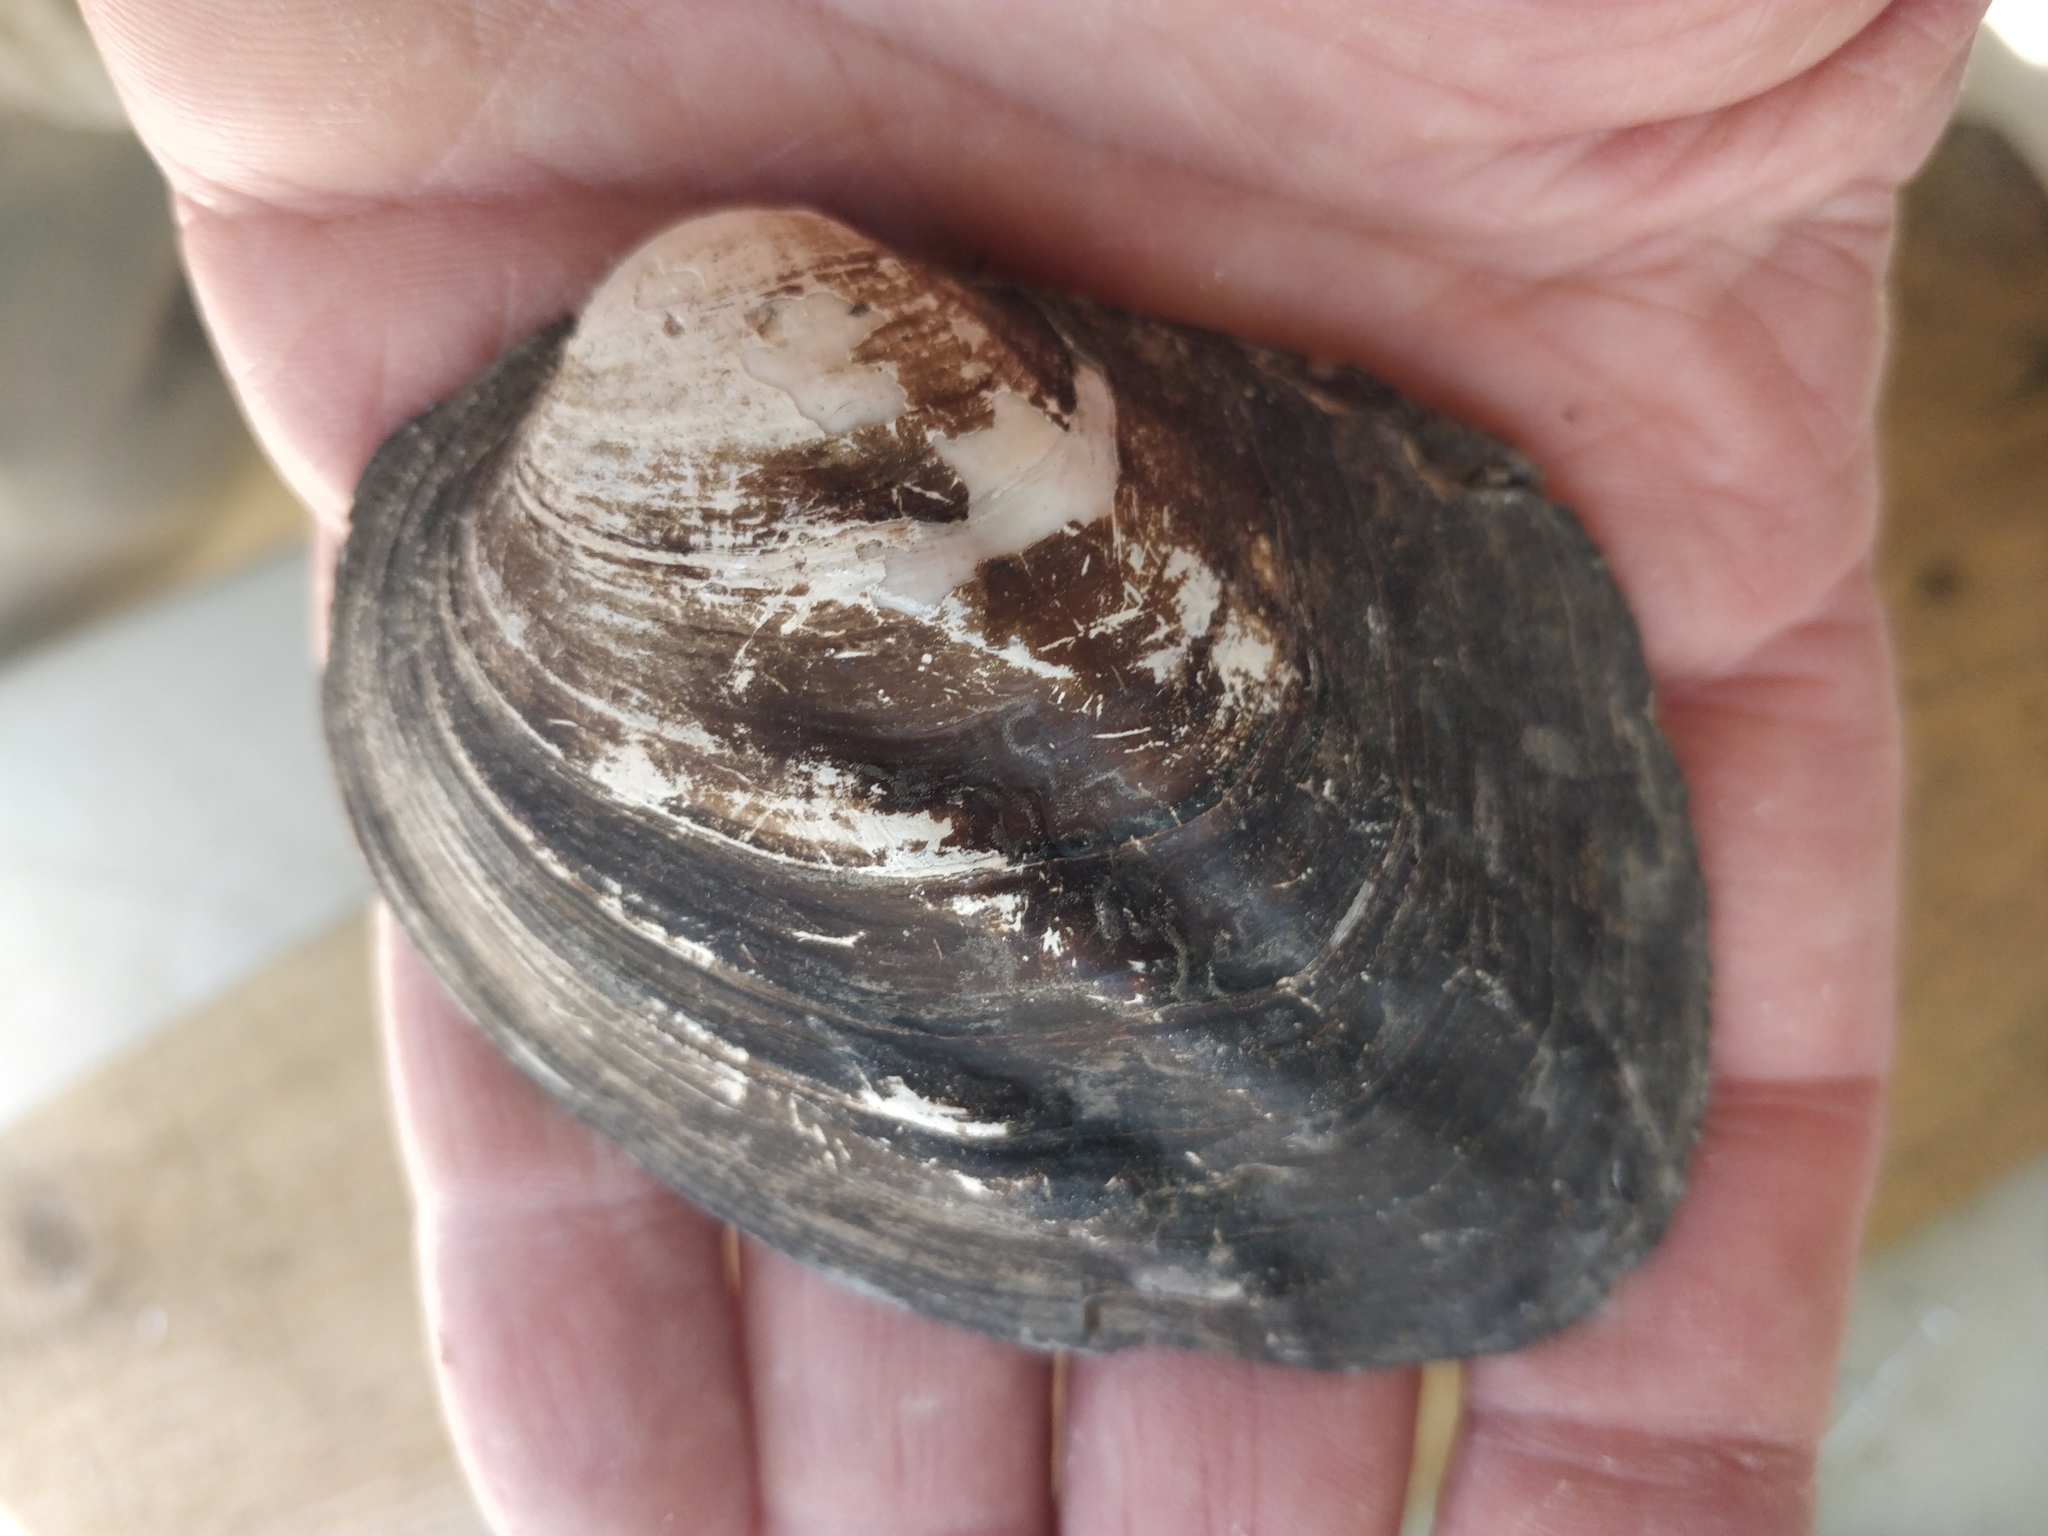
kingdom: Animalia
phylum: Mollusca
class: Bivalvia
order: Unionida
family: Unionidae
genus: Amblema
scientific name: Amblema plicata
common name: Threeridge
